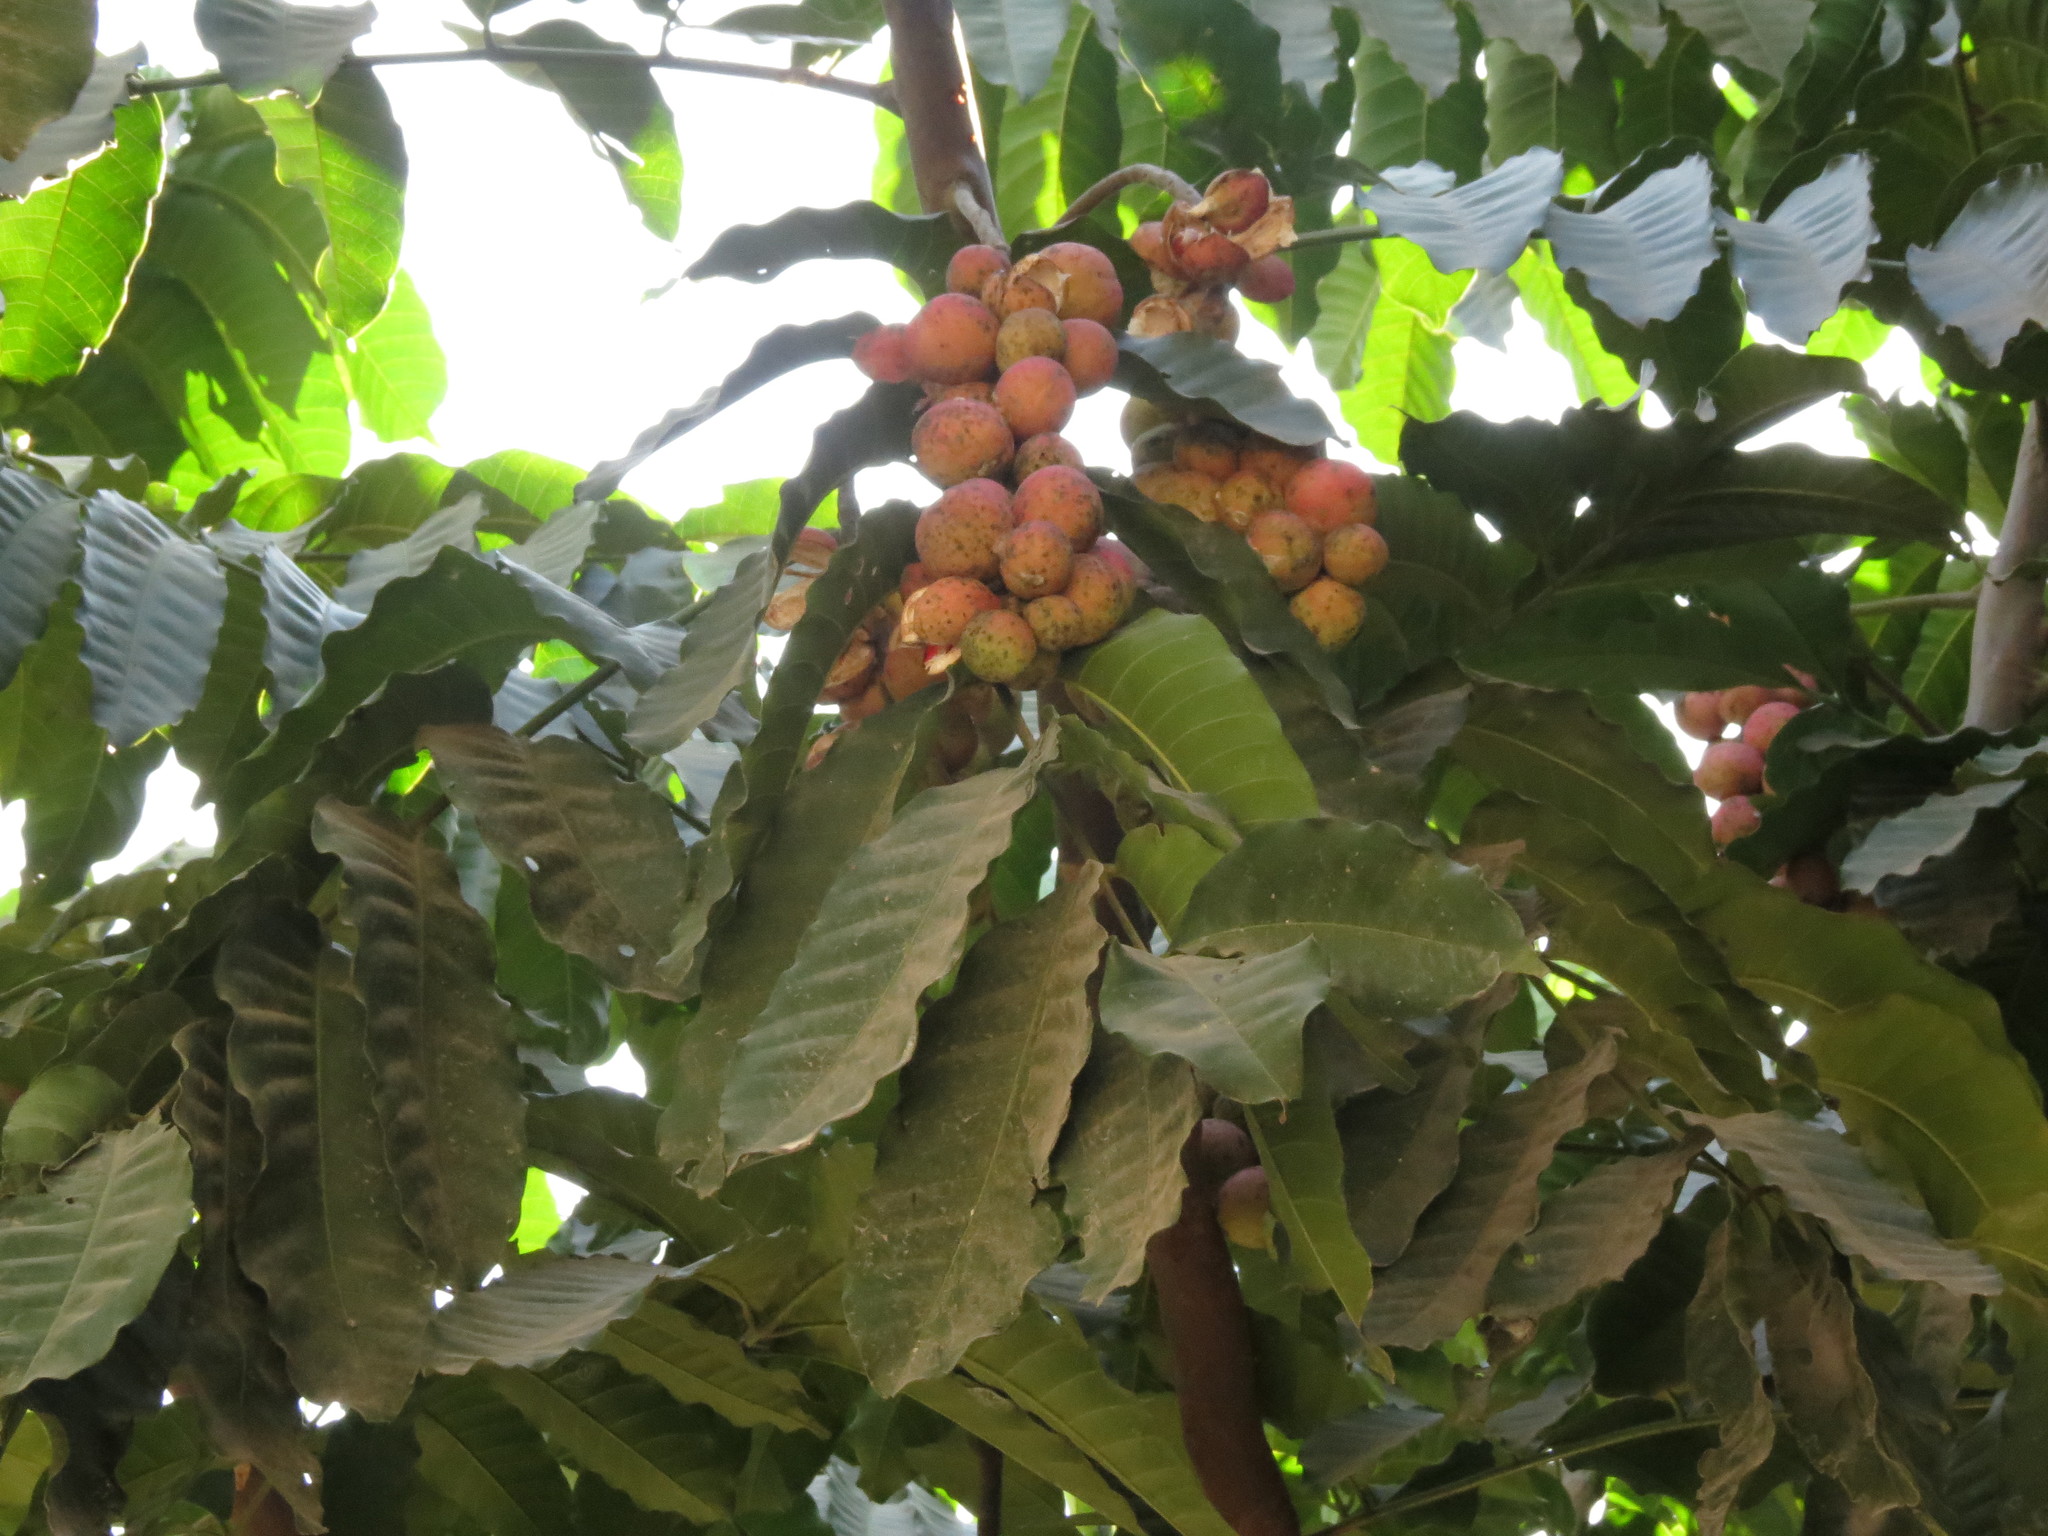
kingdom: Plantae
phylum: Tracheophyta
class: Magnoliopsida
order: Sapindales
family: Meliaceae
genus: Aphanamixis
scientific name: Aphanamixis polystachya
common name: Pithraj tree
